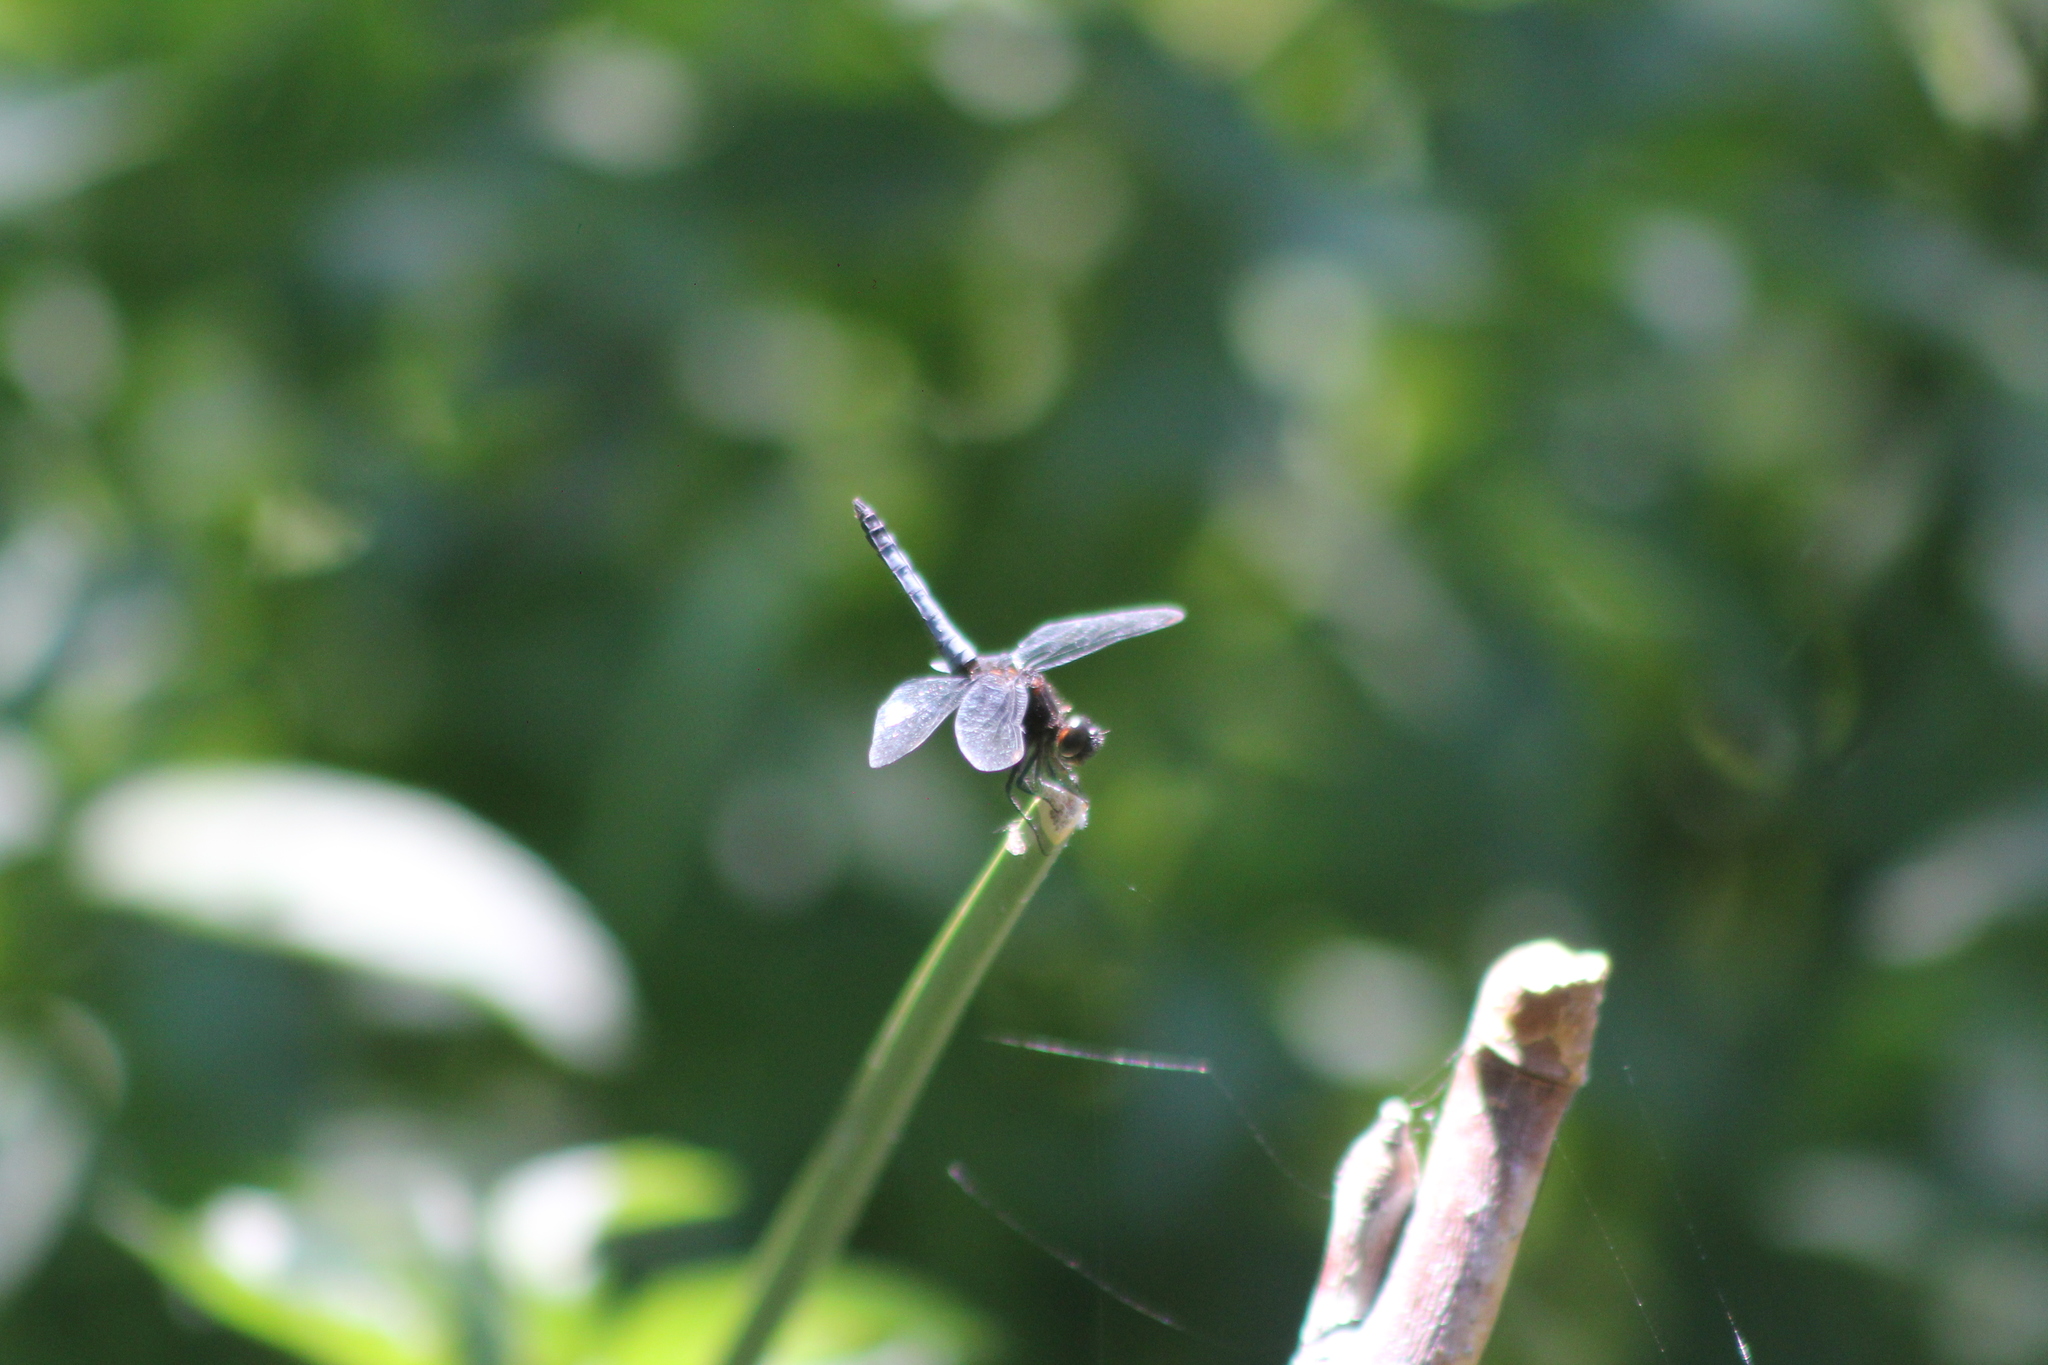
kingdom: Animalia
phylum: Arthropoda
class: Insecta
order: Odonata
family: Libellulidae
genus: Erythrodiplax
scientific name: Erythrodiplax connata
